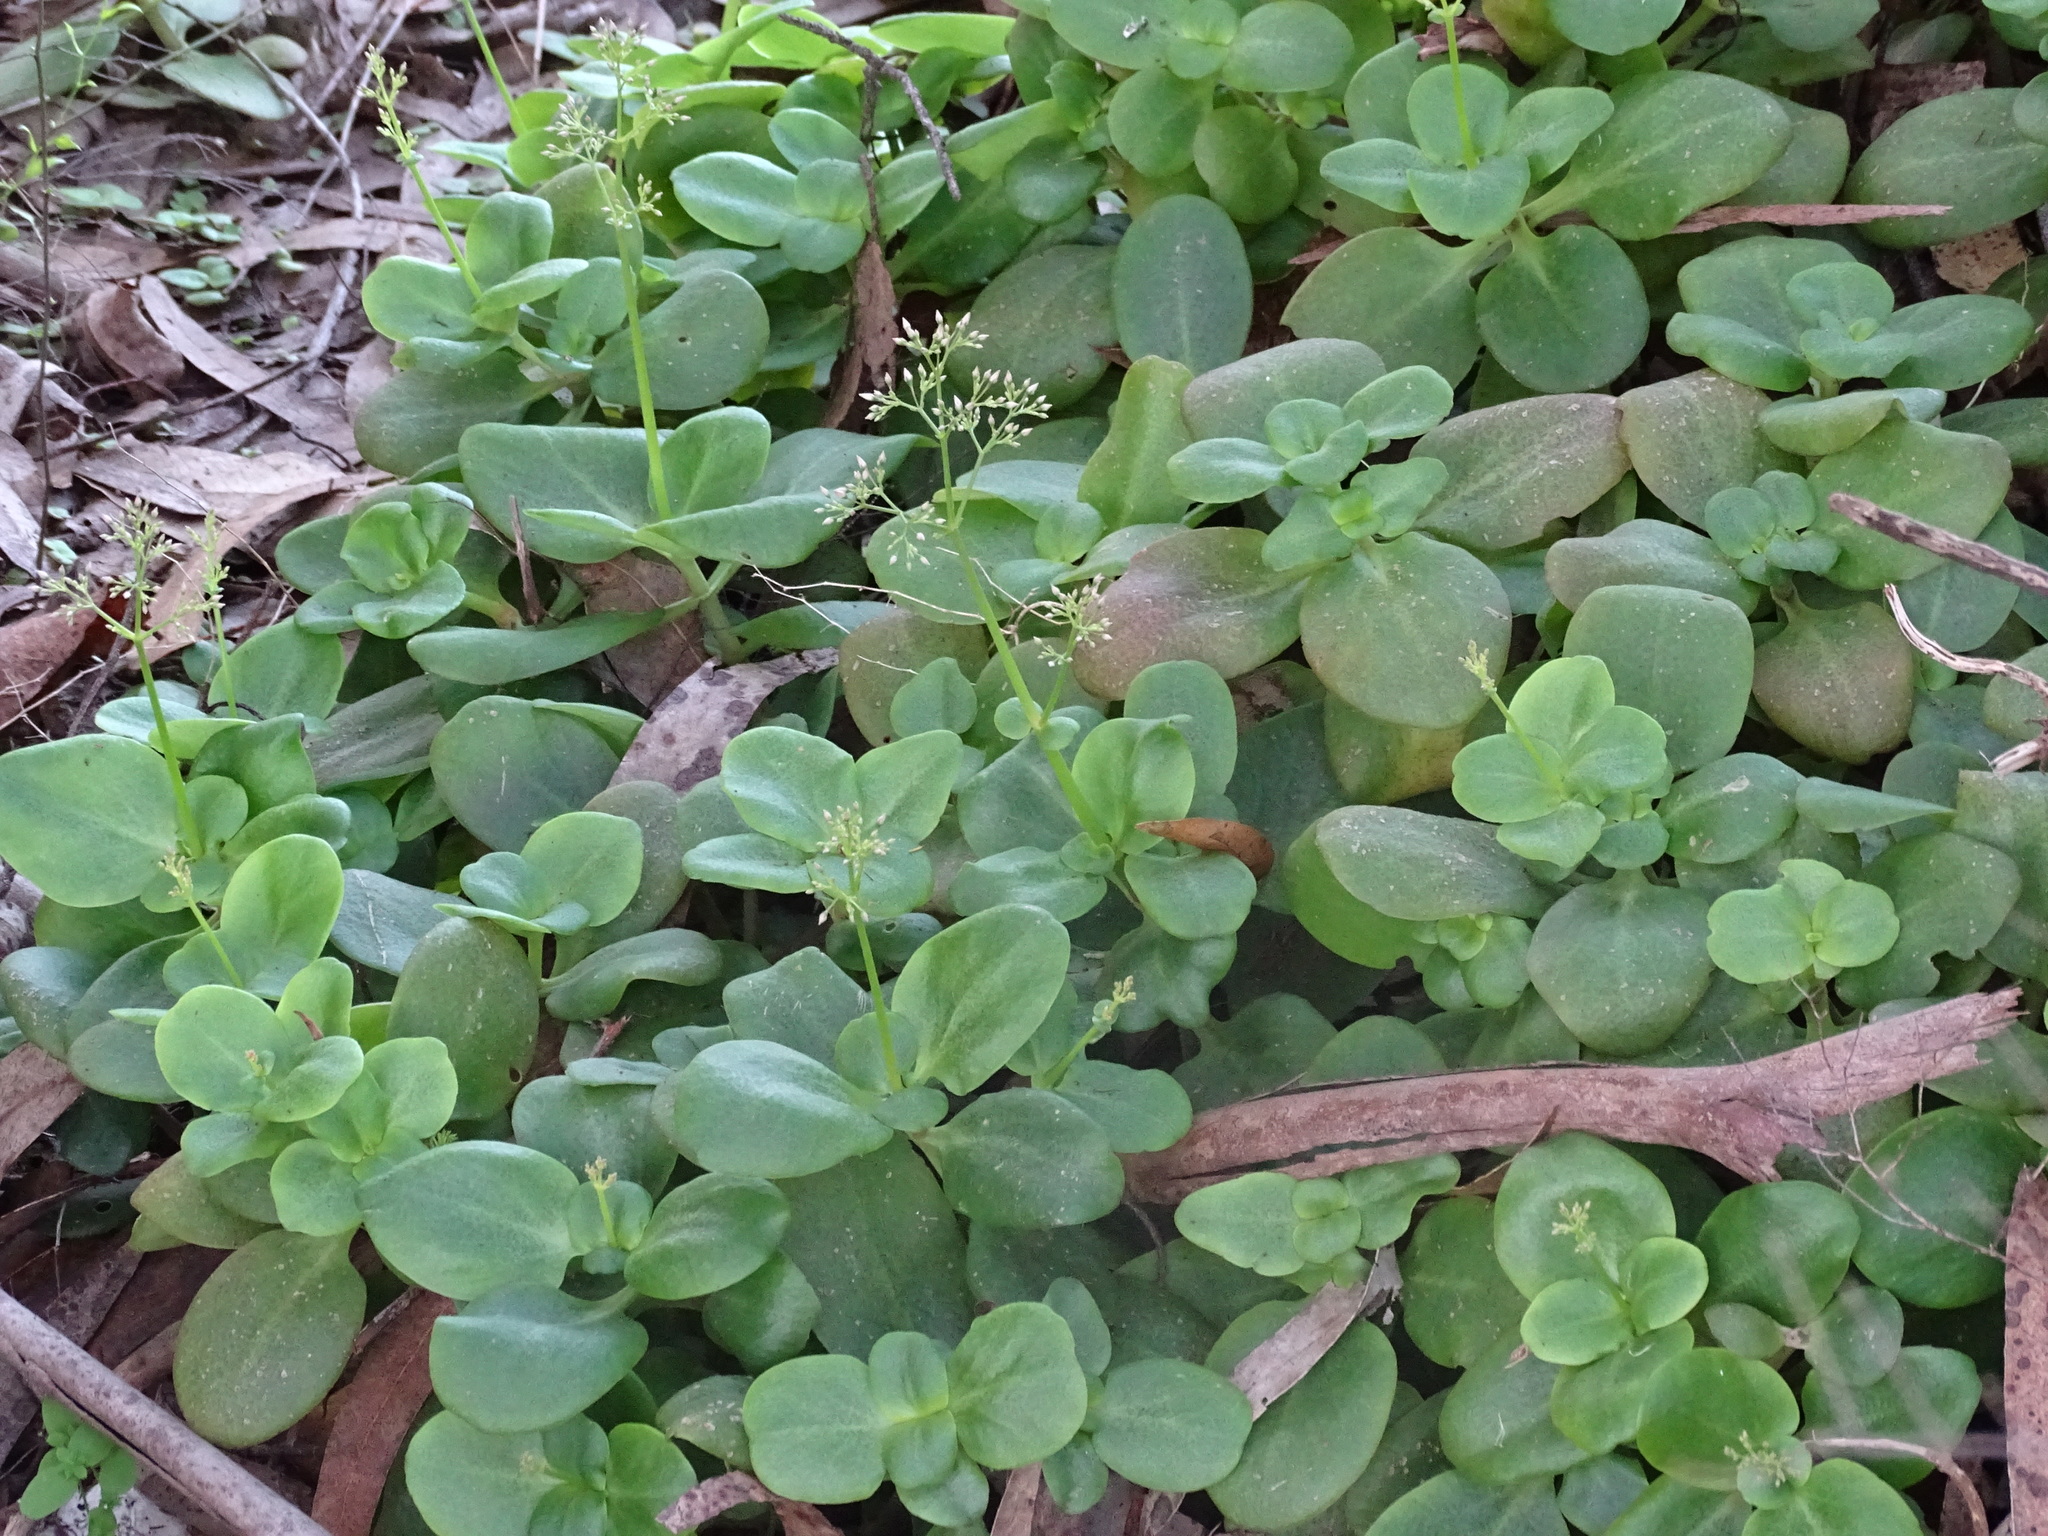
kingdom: Plantae
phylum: Tracheophyta
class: Magnoliopsida
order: Saxifragales
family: Crassulaceae
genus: Crassula
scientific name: Crassula multicava
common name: Cape province pygmyweed
